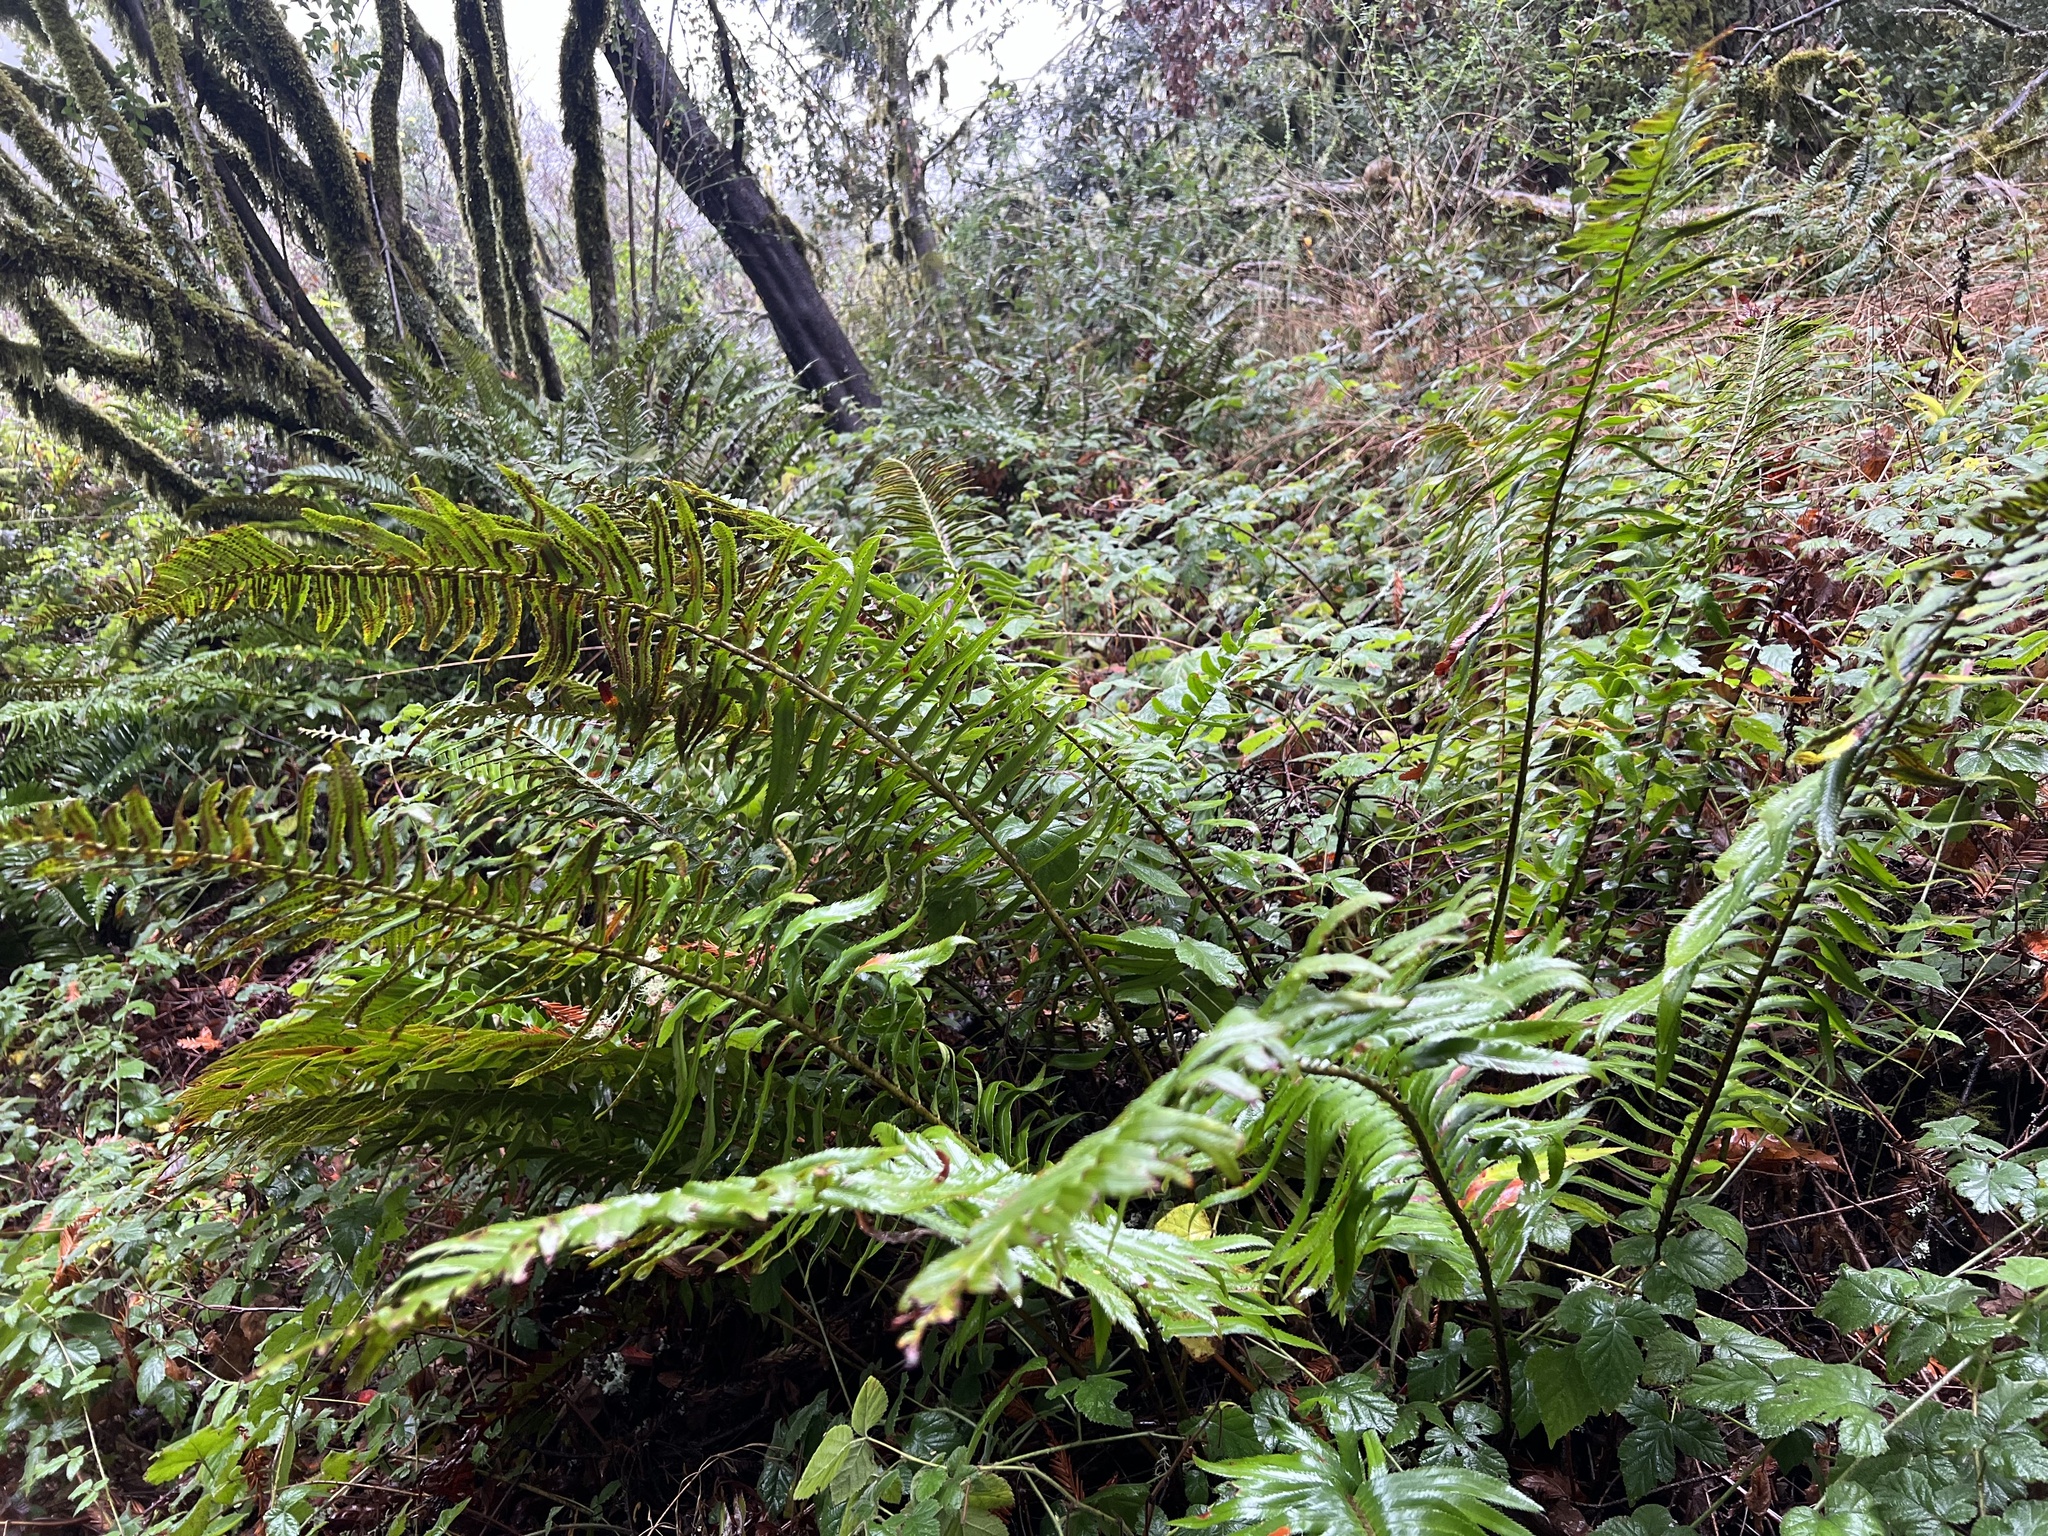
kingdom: Plantae
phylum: Tracheophyta
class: Polypodiopsida
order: Polypodiales
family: Dryopteridaceae
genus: Polystichum
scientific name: Polystichum munitum
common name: Western sword-fern
